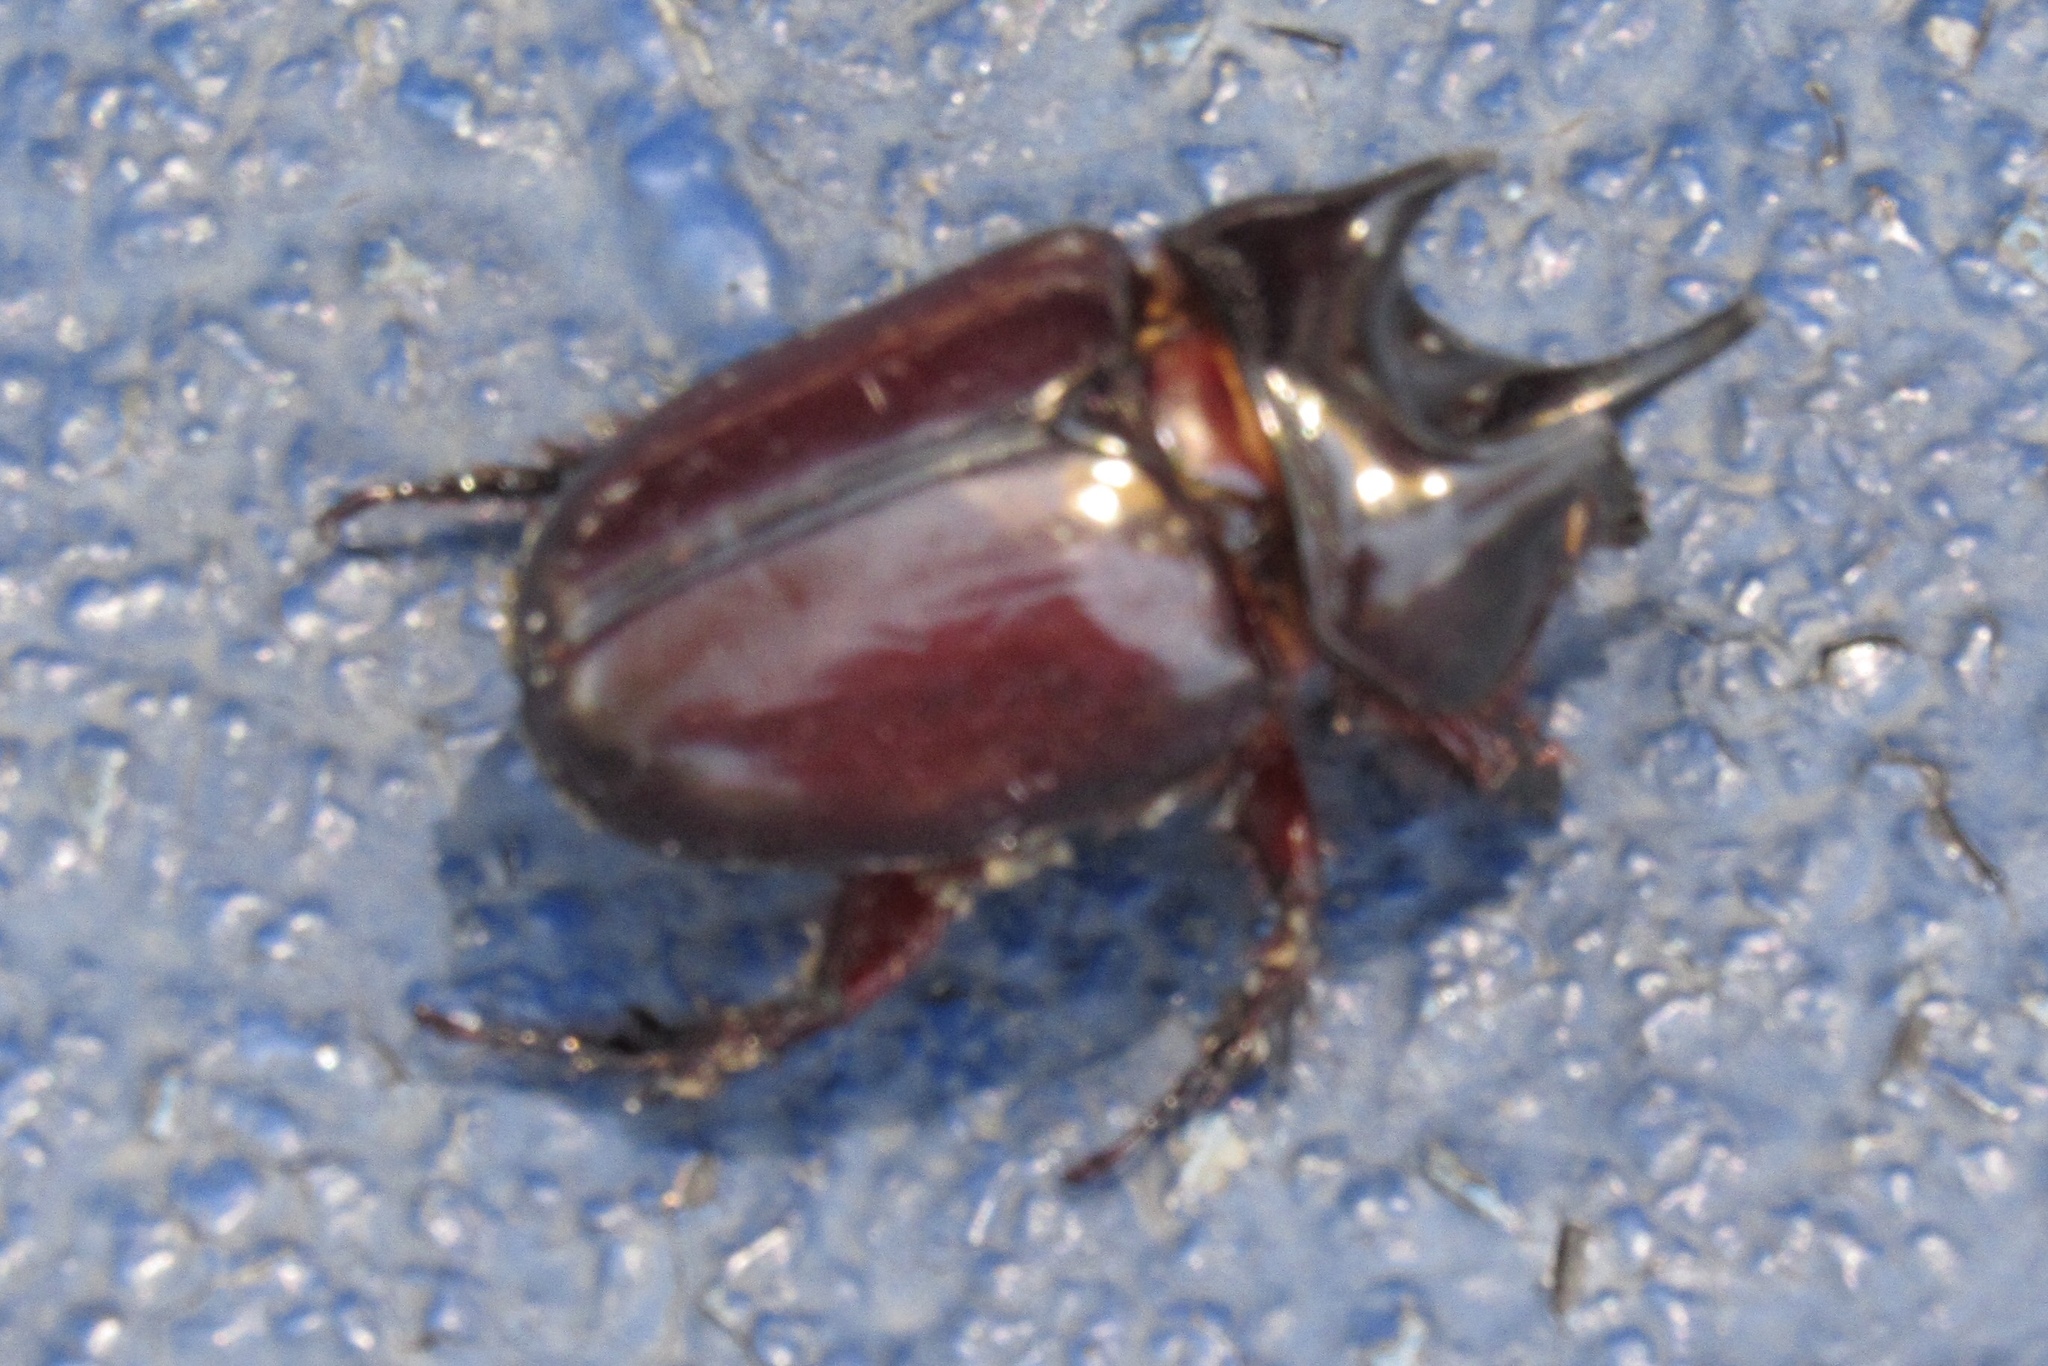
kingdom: Animalia
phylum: Arthropoda
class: Insecta
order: Coleoptera
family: Scarabaeidae
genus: Strategus
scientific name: Strategus aloeus
